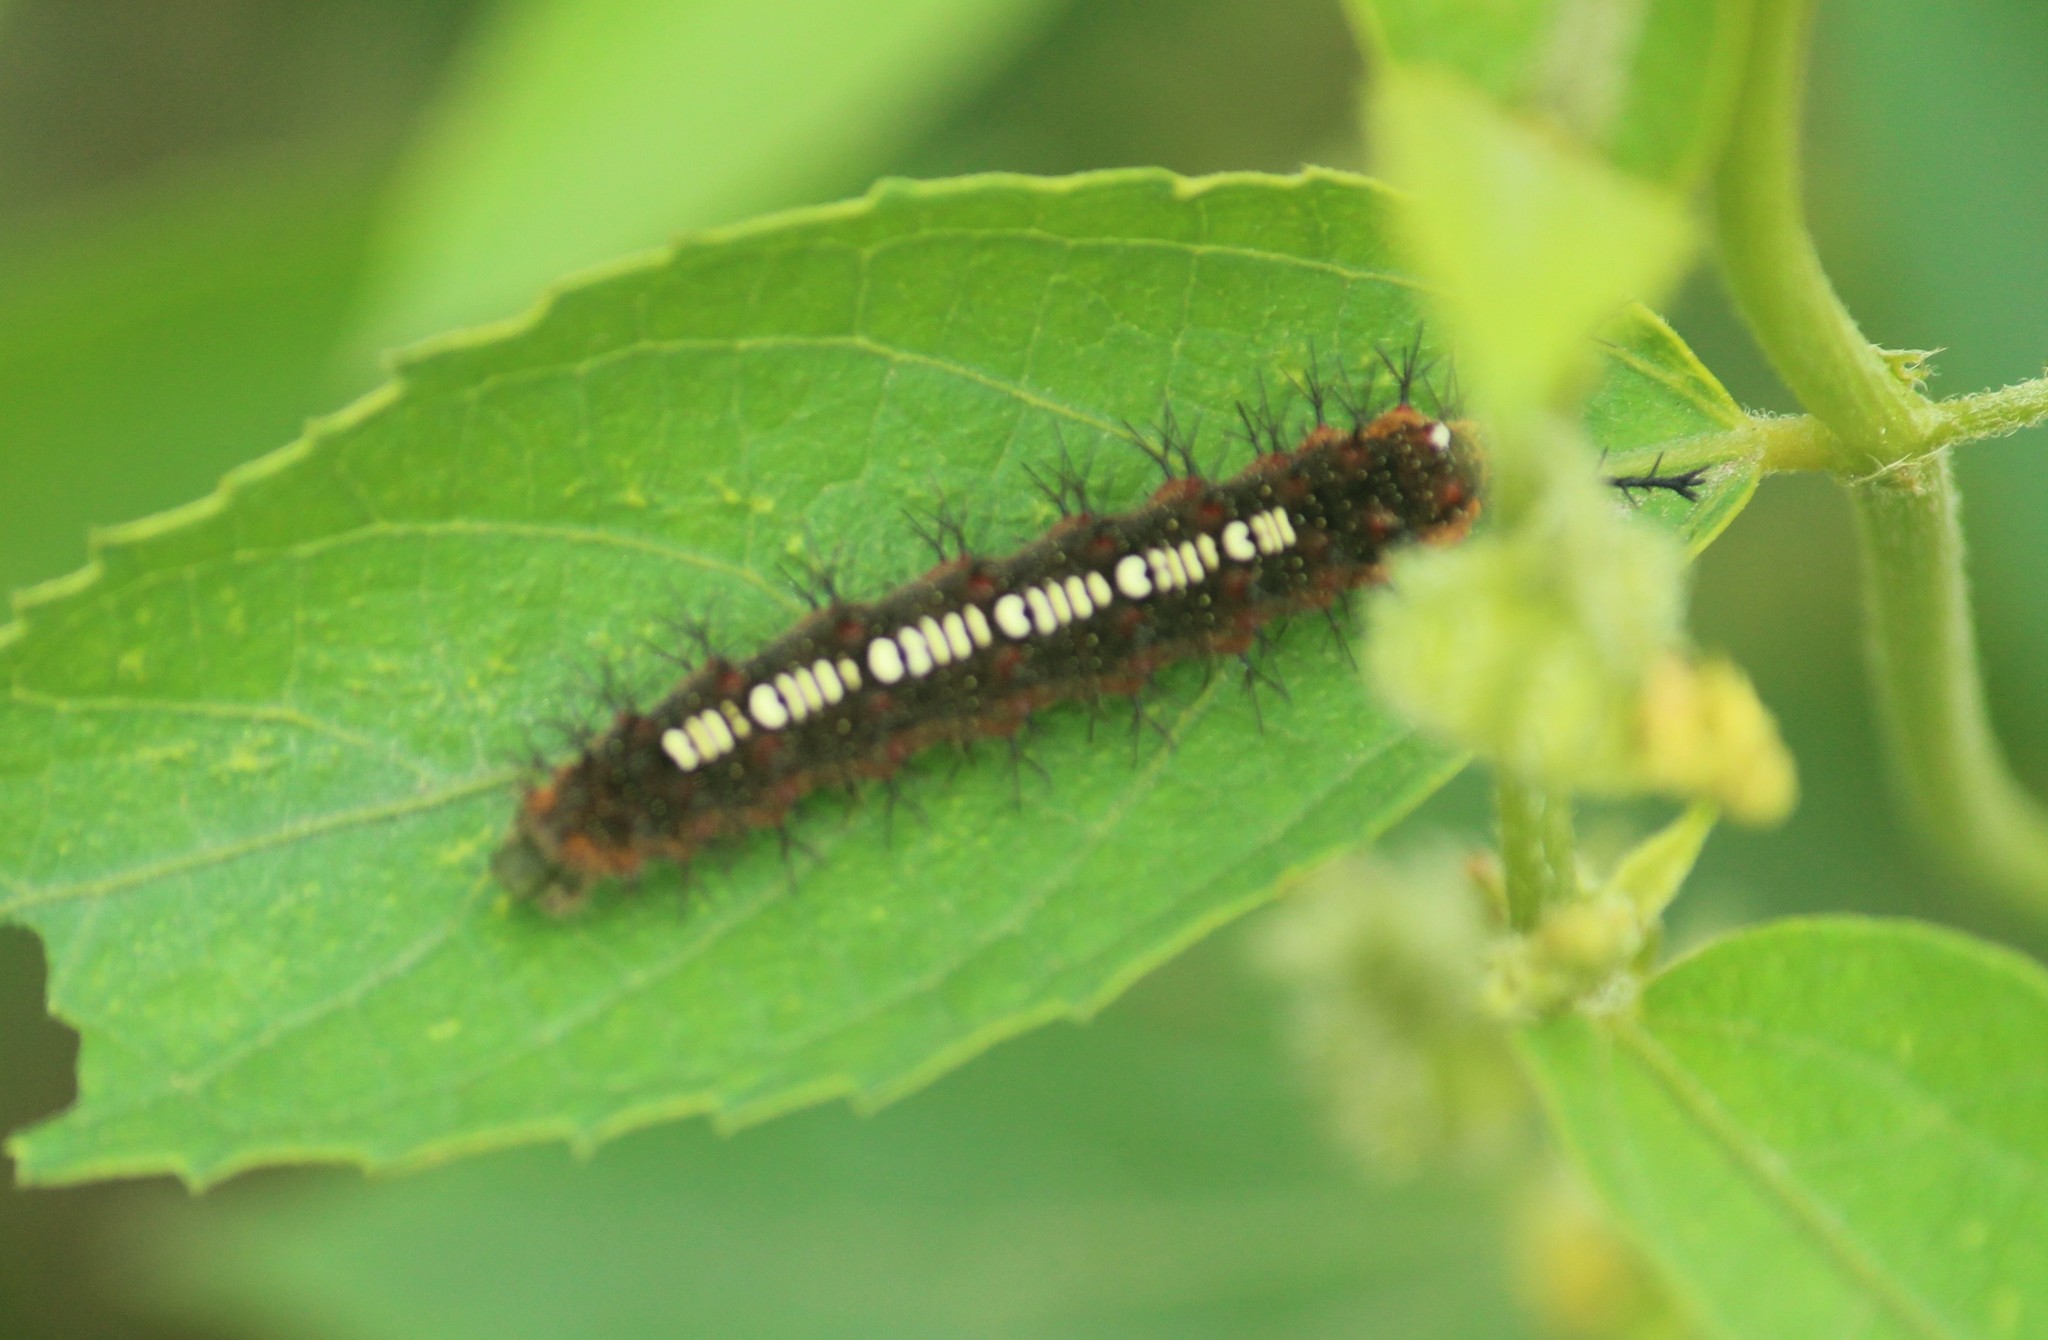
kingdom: Animalia
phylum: Arthropoda
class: Insecta
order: Lepidoptera
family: Nymphalidae
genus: Ariadne
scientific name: Ariadne ariadne
